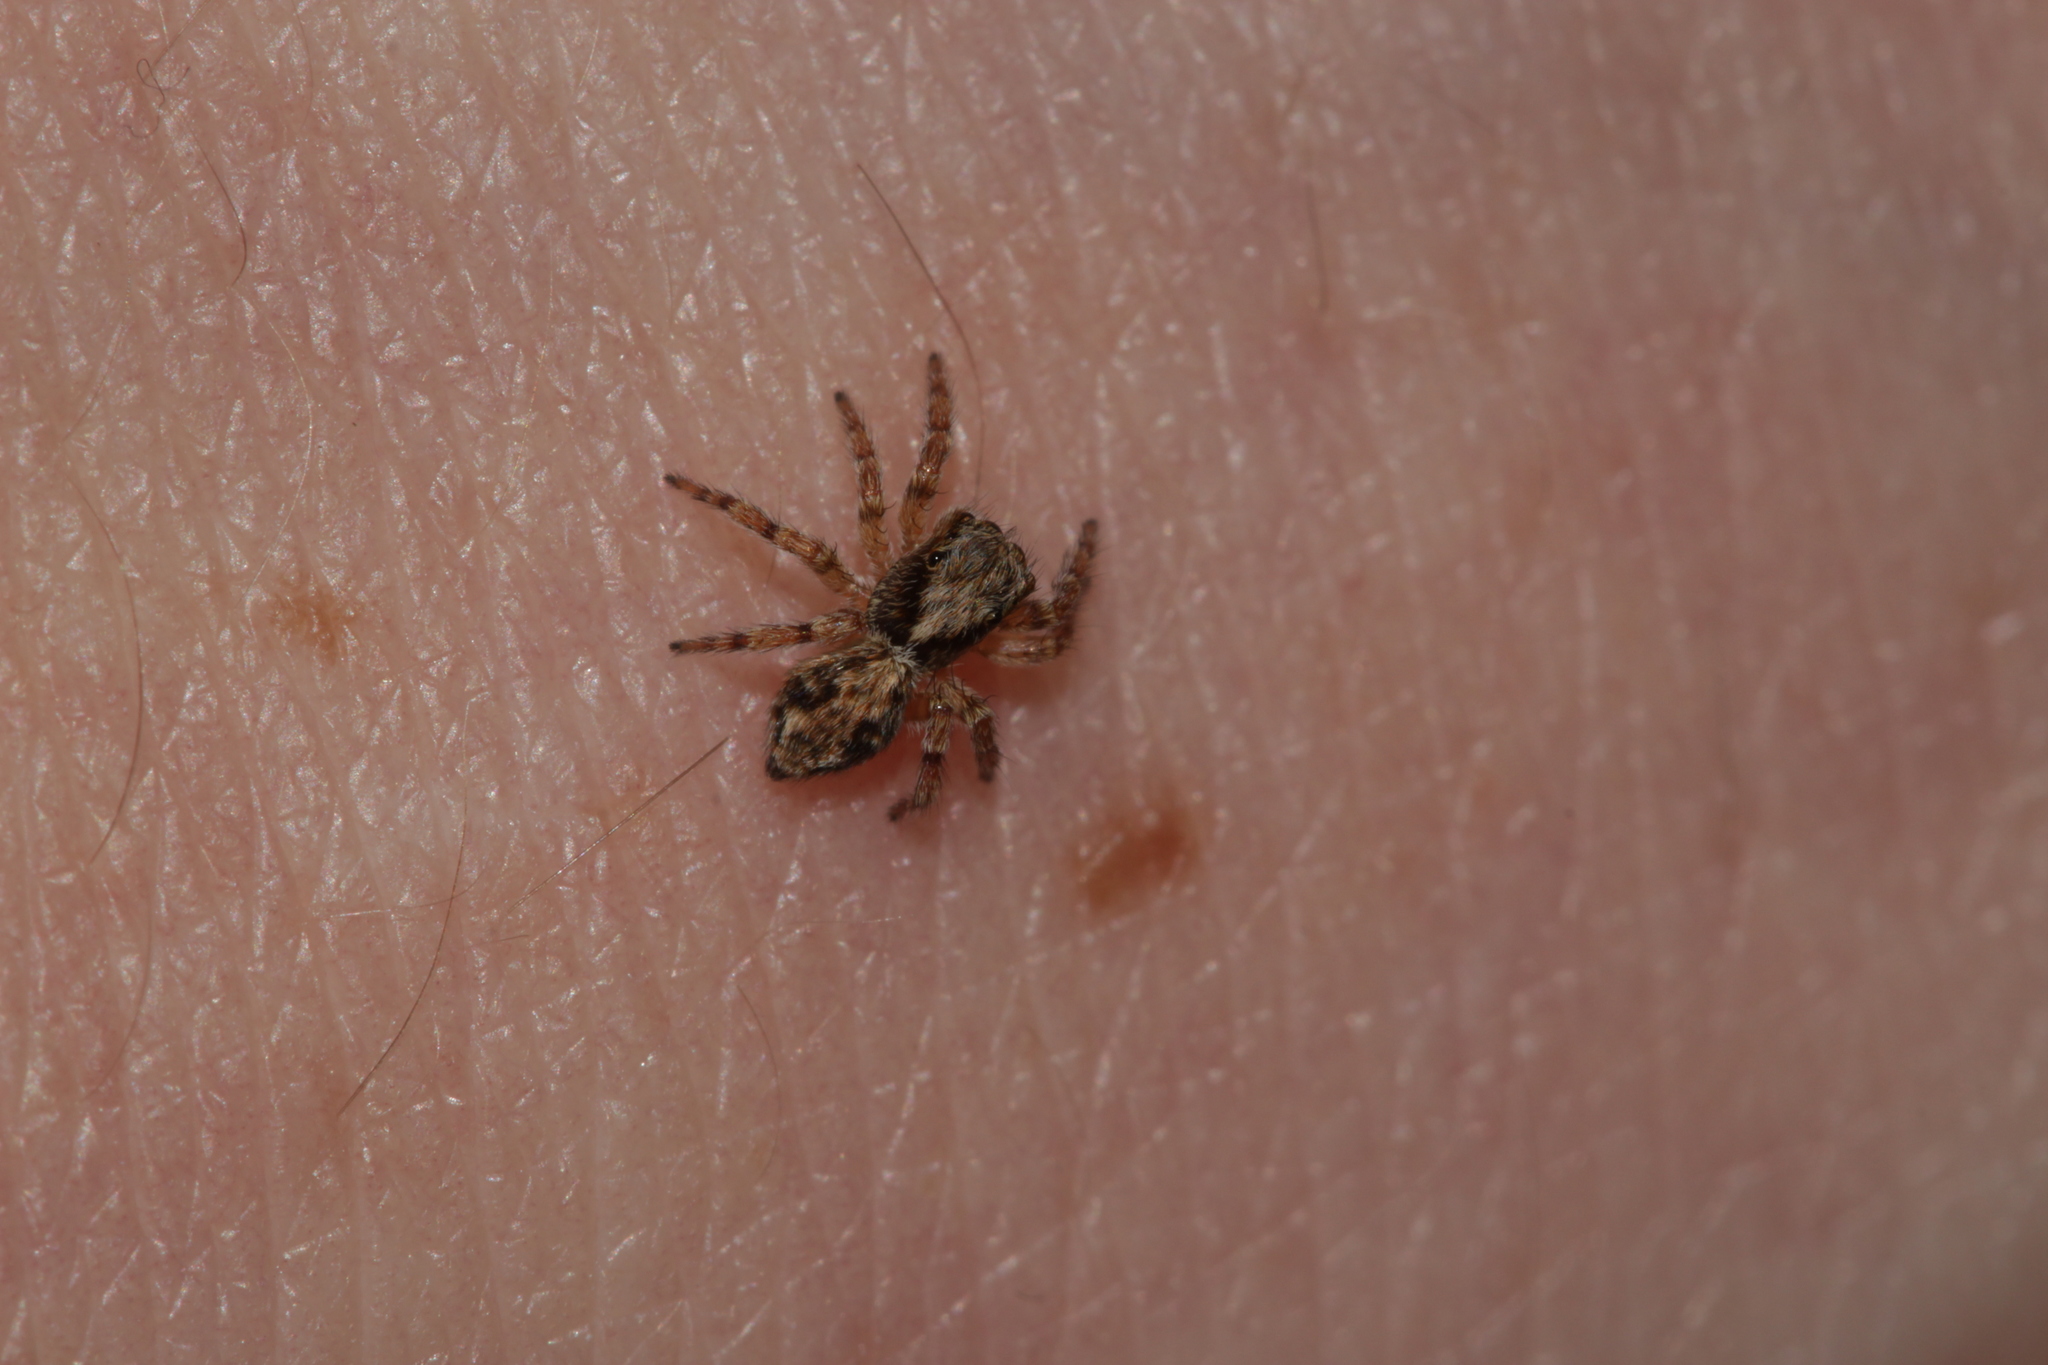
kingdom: Animalia
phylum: Arthropoda
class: Arachnida
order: Araneae
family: Salticidae
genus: Pseudeuophrys
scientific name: Pseudeuophrys lanigera
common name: Jumping spider
